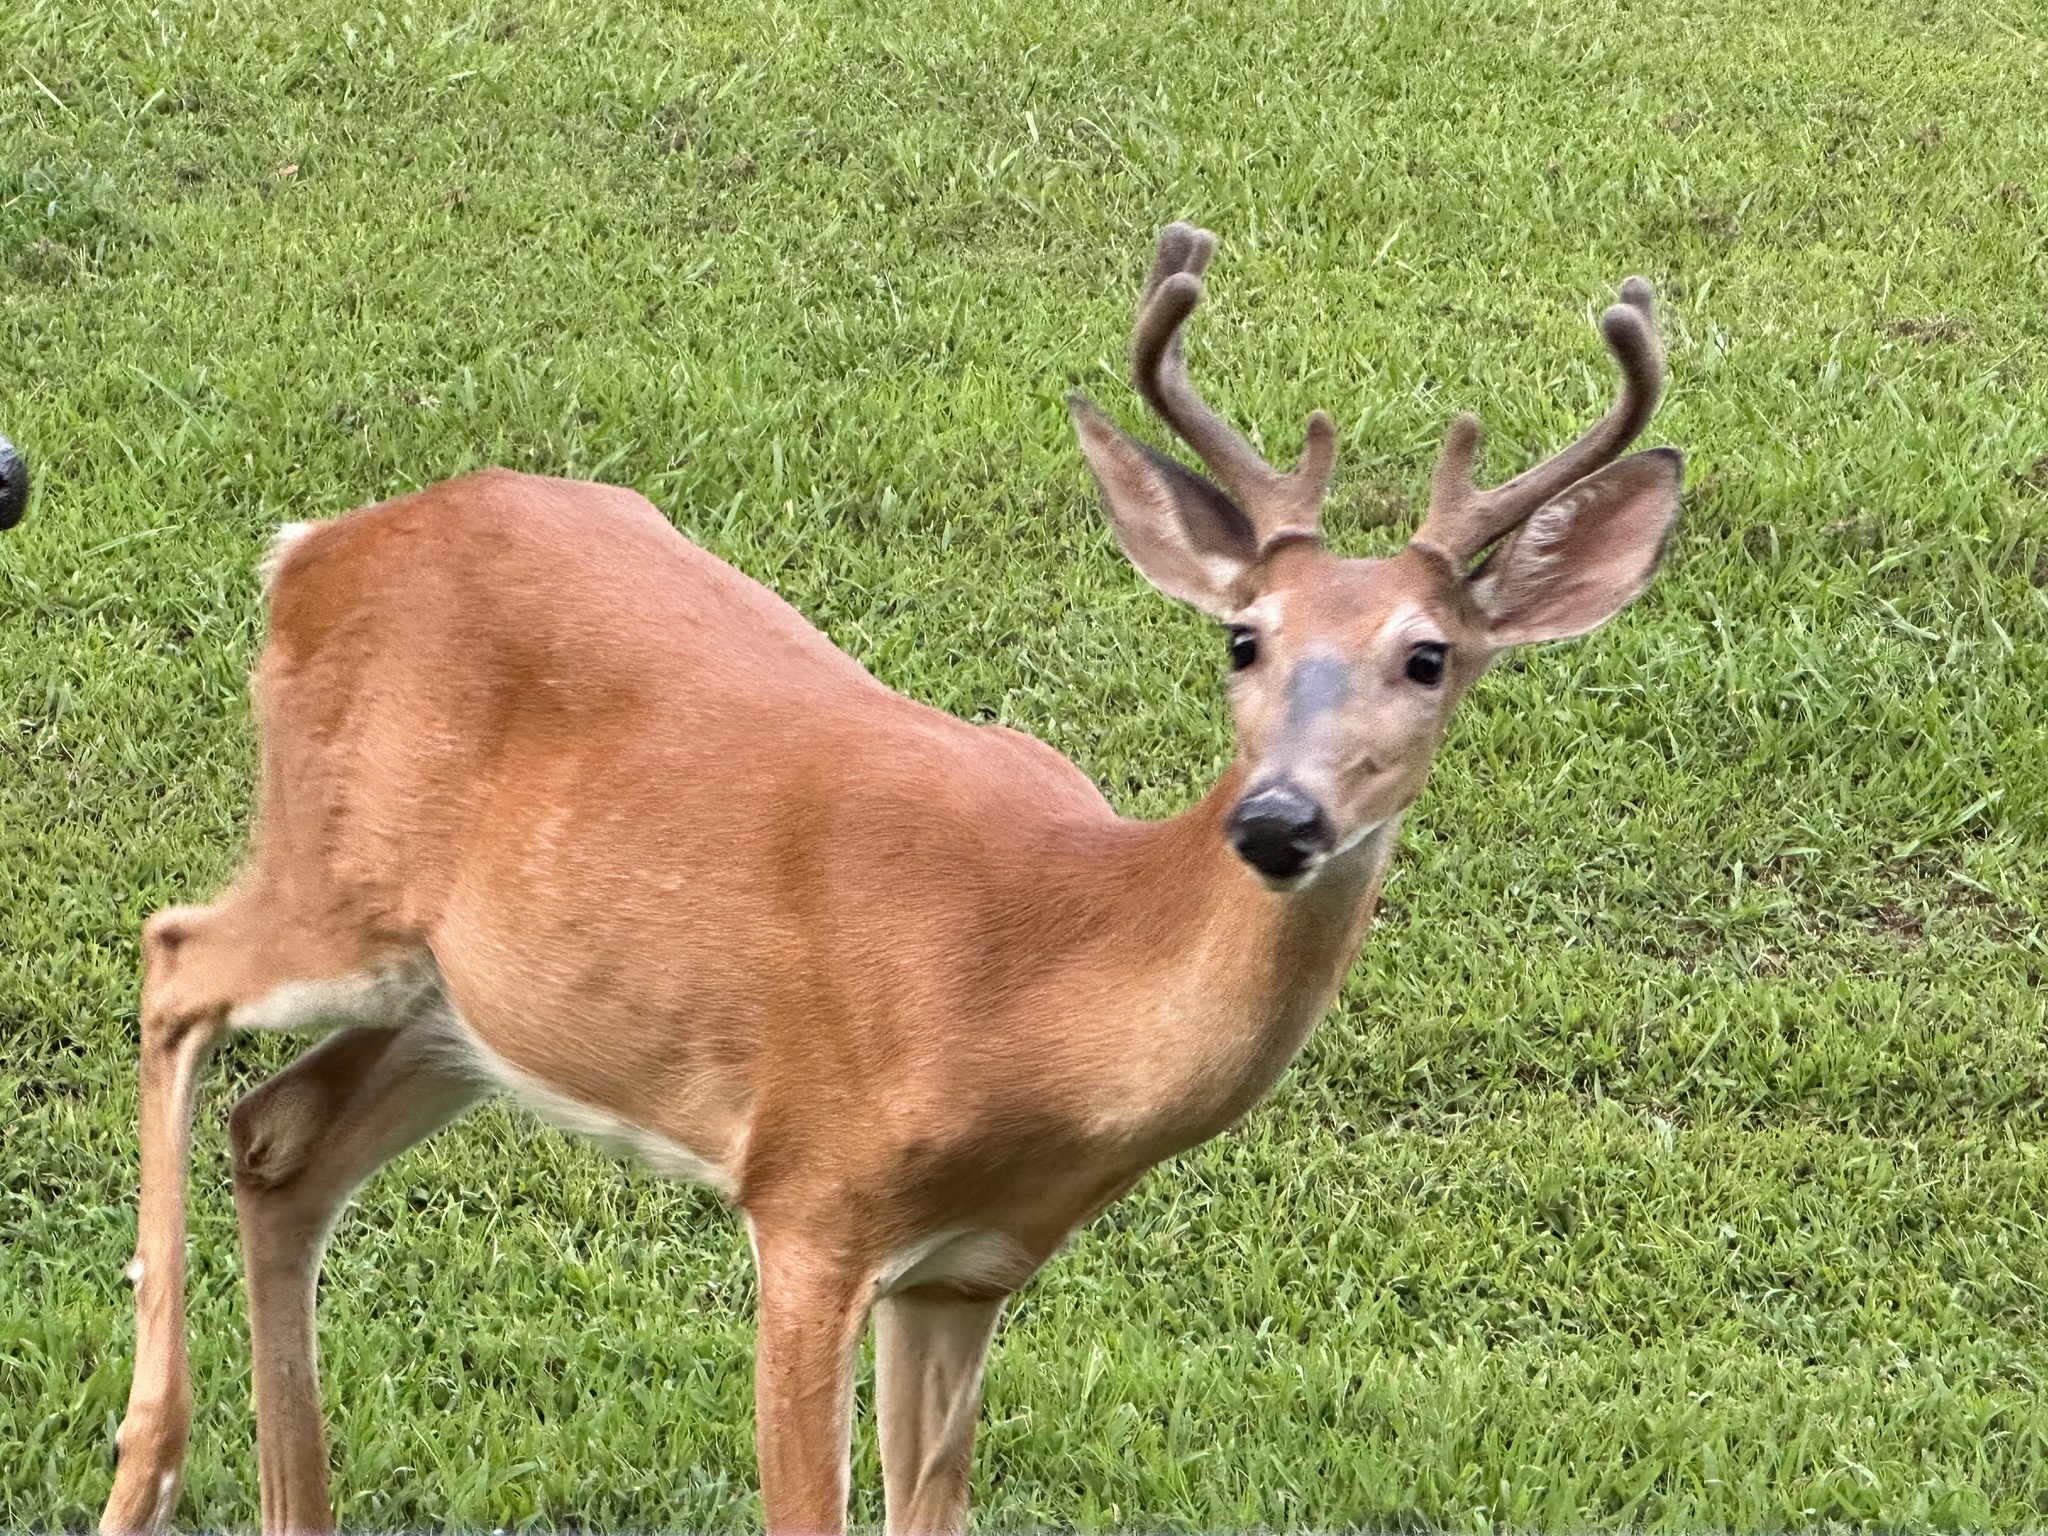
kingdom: Animalia
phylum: Chordata
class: Mammalia
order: Artiodactyla
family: Cervidae
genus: Odocoileus
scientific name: Odocoileus virginianus
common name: White-tailed deer
